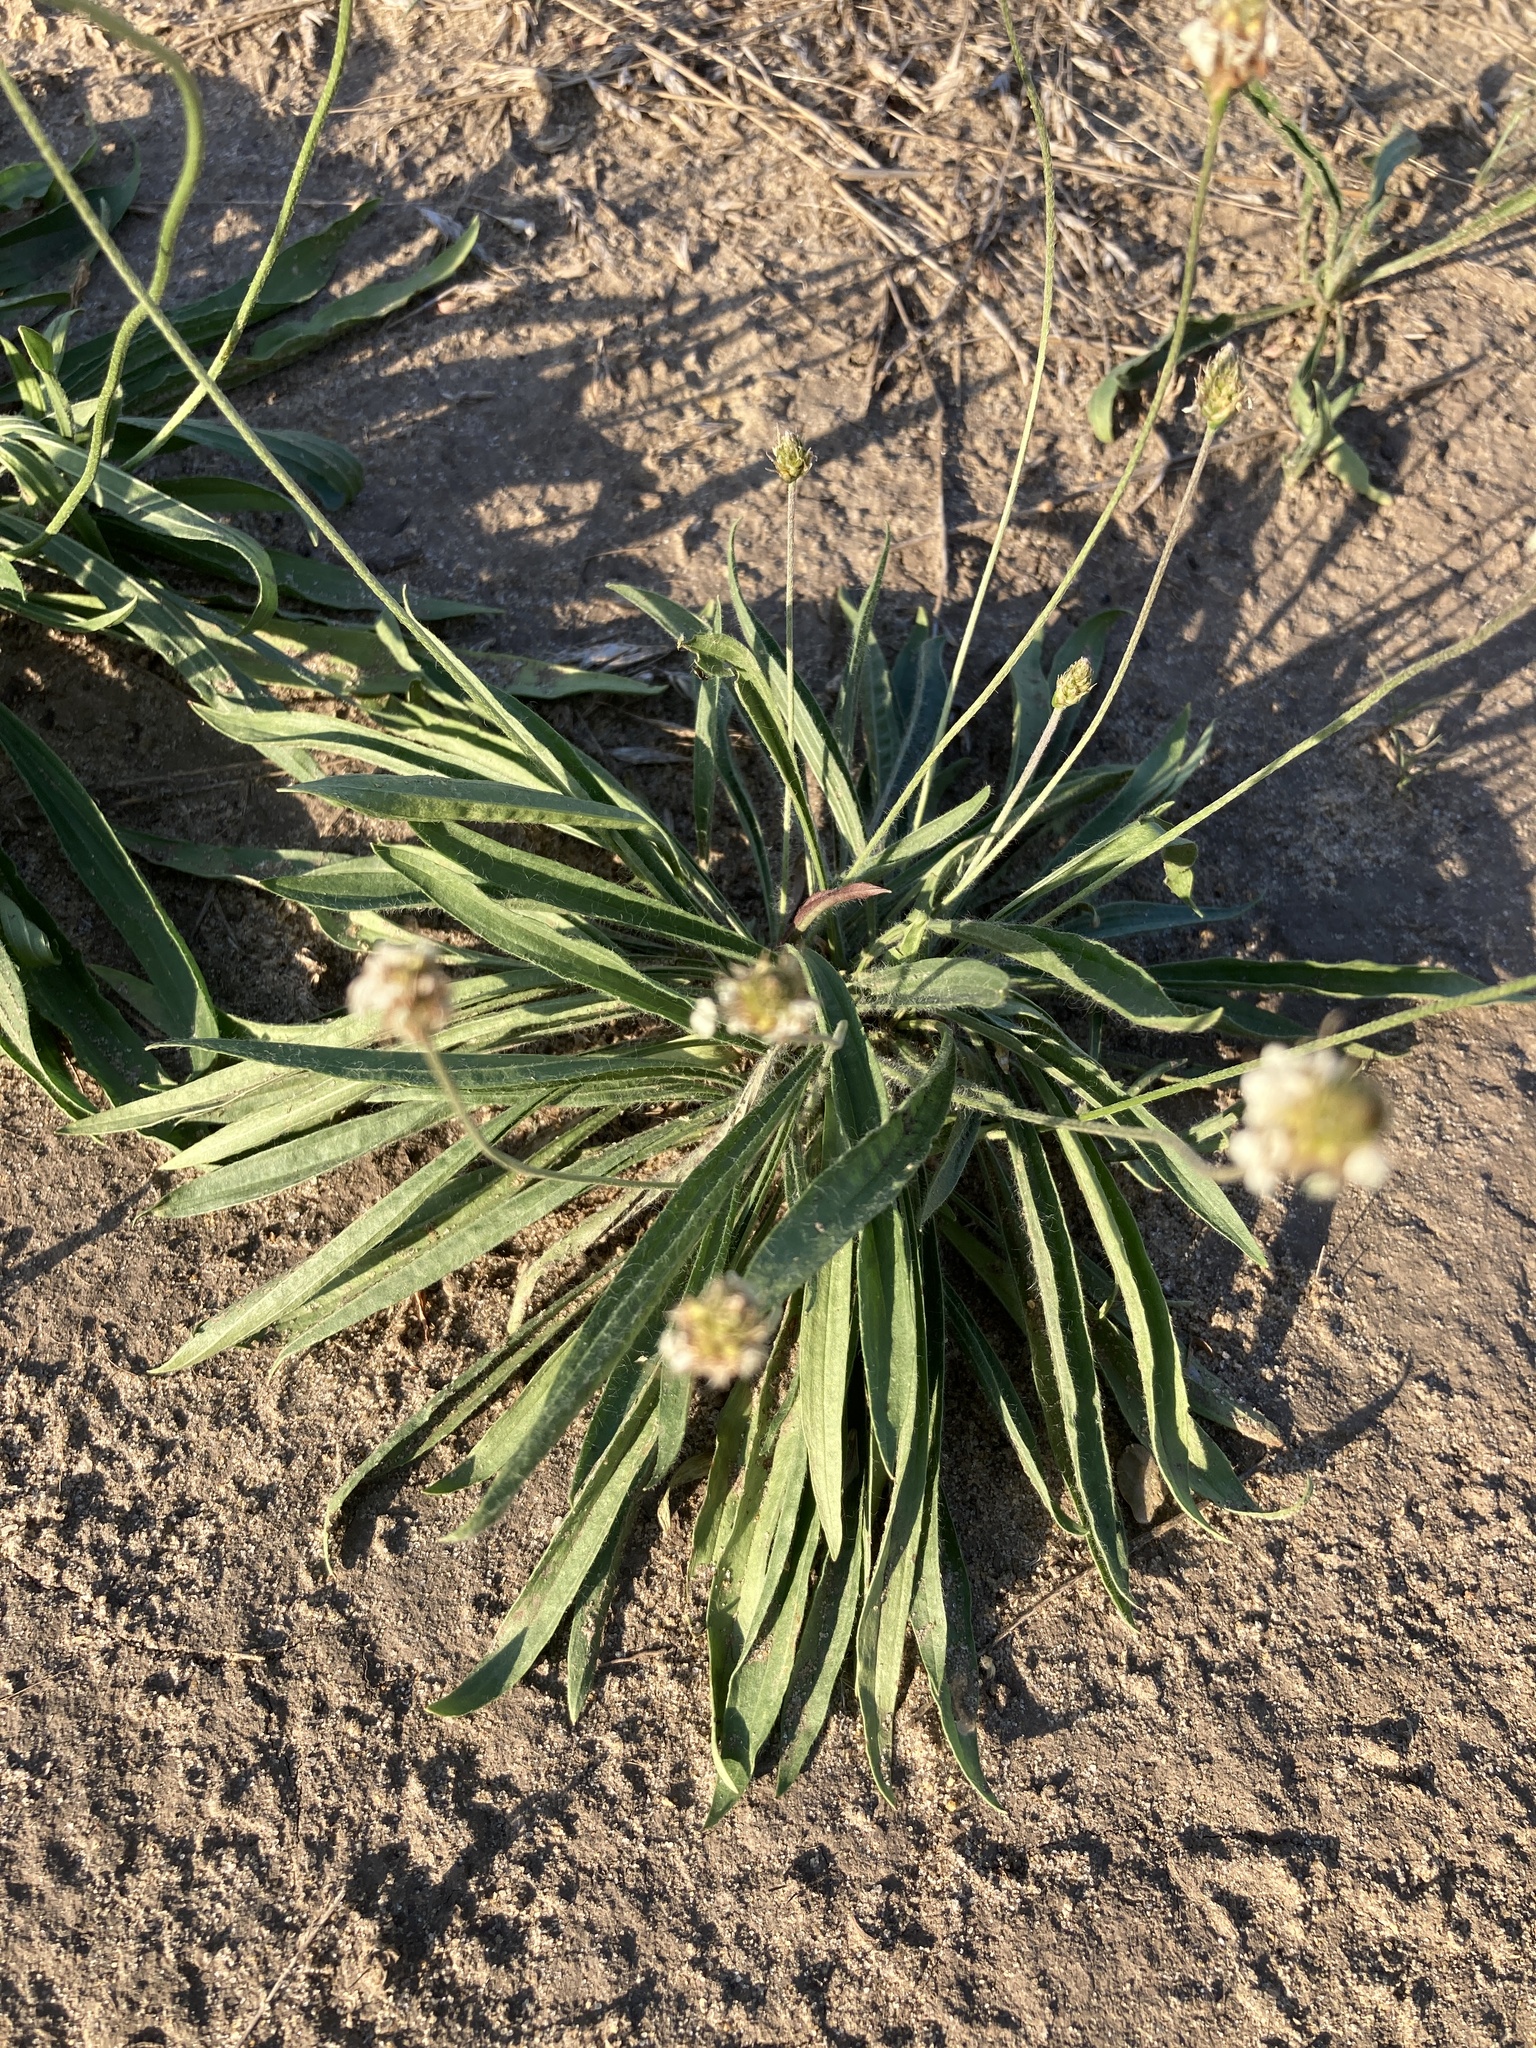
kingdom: Plantae
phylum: Tracheophyta
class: Magnoliopsida
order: Lamiales
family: Plantaginaceae
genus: Plantago
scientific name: Plantago lanceolata
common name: Ribwort plantain
